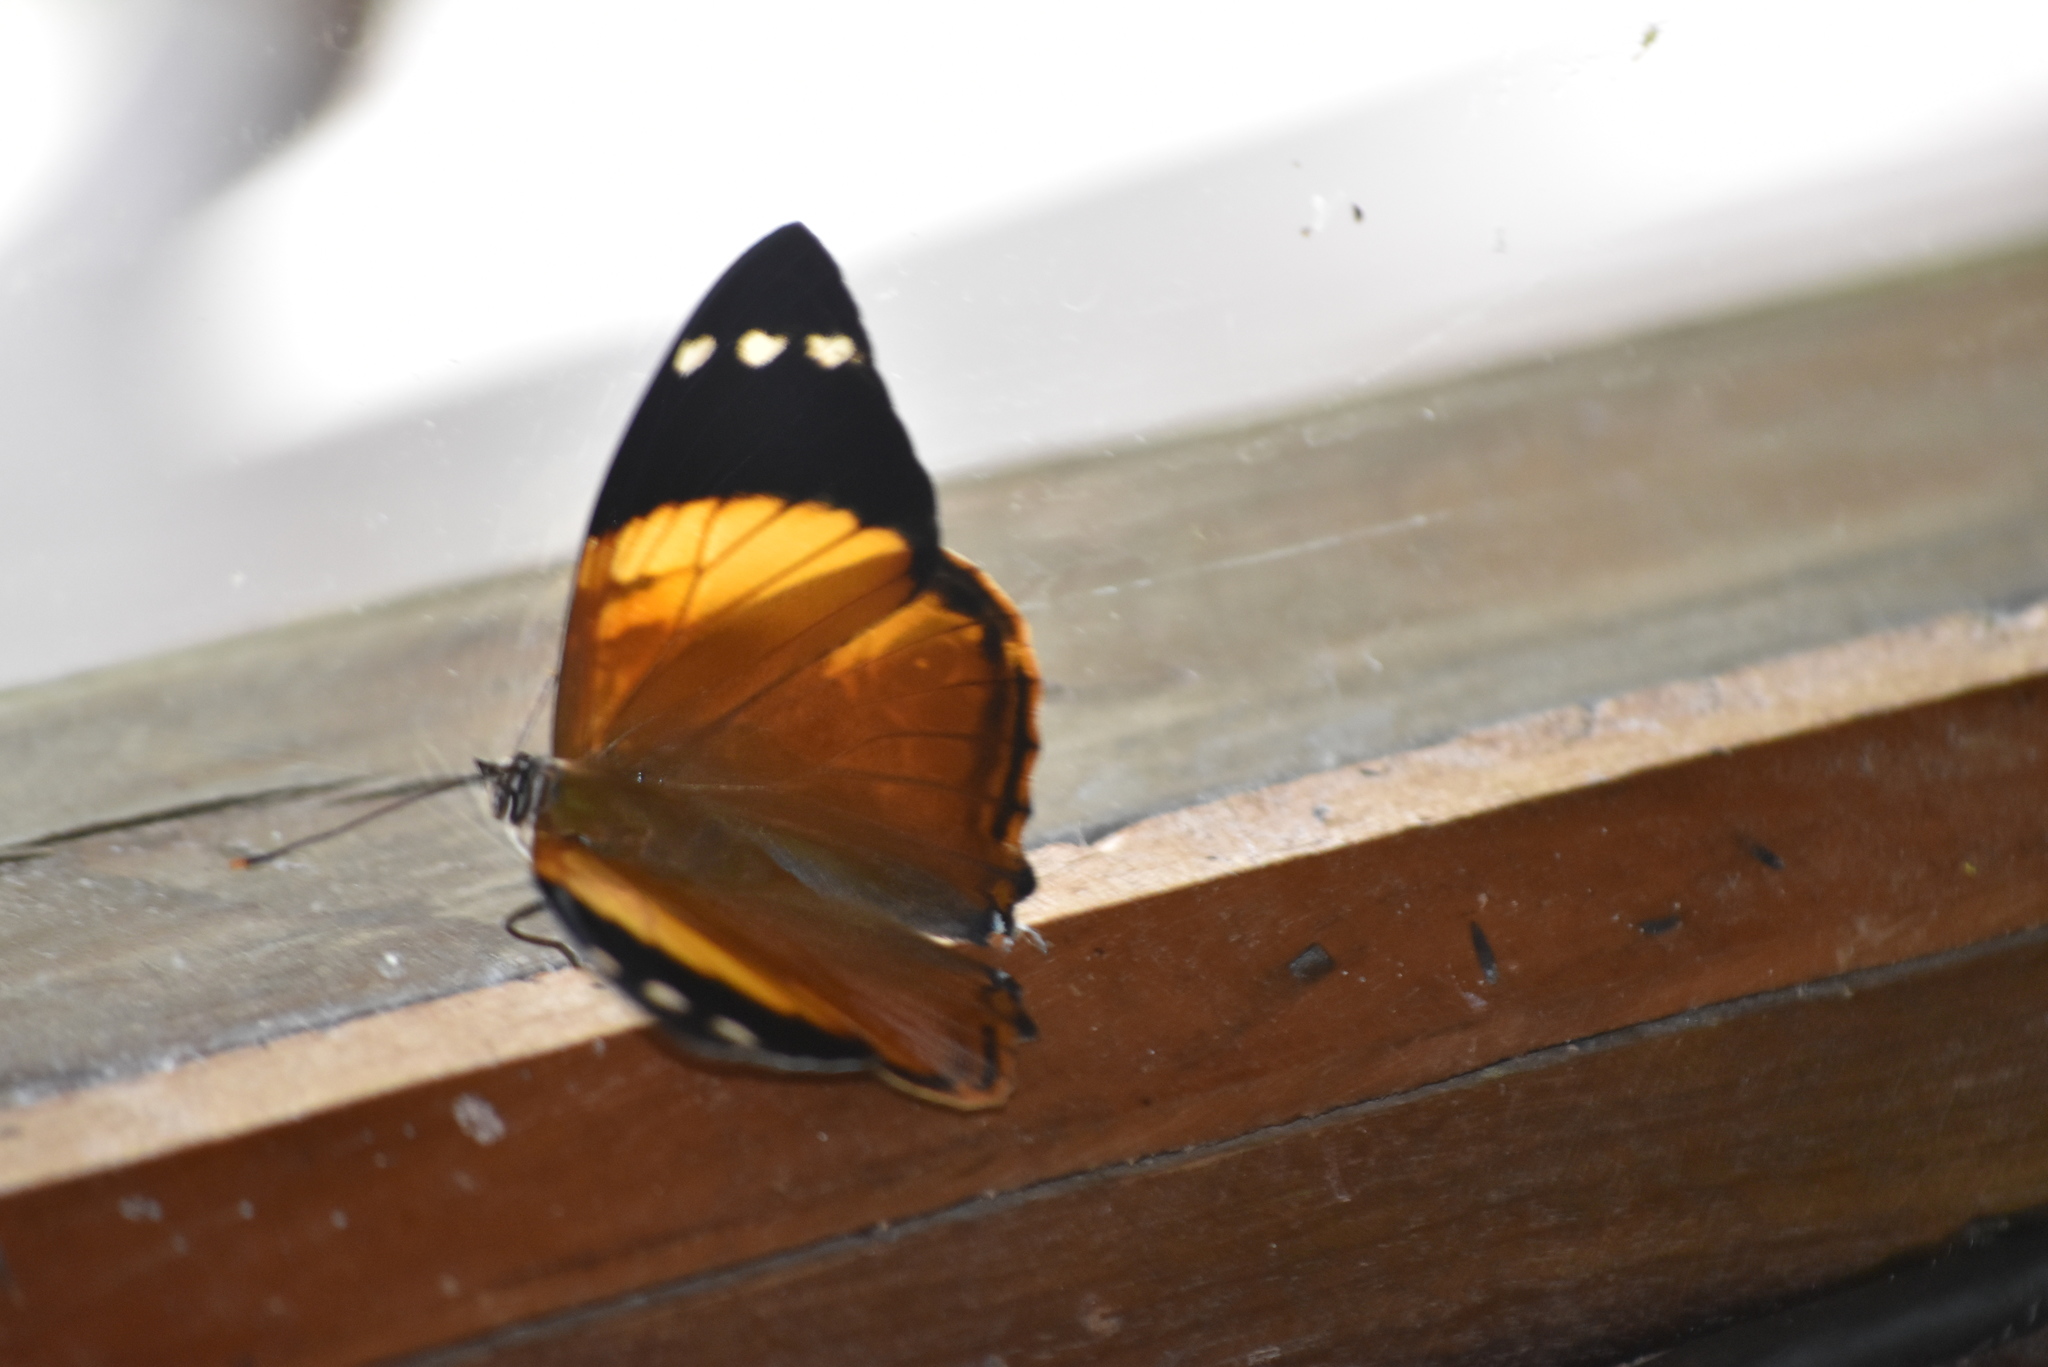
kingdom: Animalia
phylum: Arthropoda
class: Insecta
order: Lepidoptera
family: Nymphalidae
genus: Smyrna
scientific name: Smyrna blomfildia
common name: Blomfild's beauty
